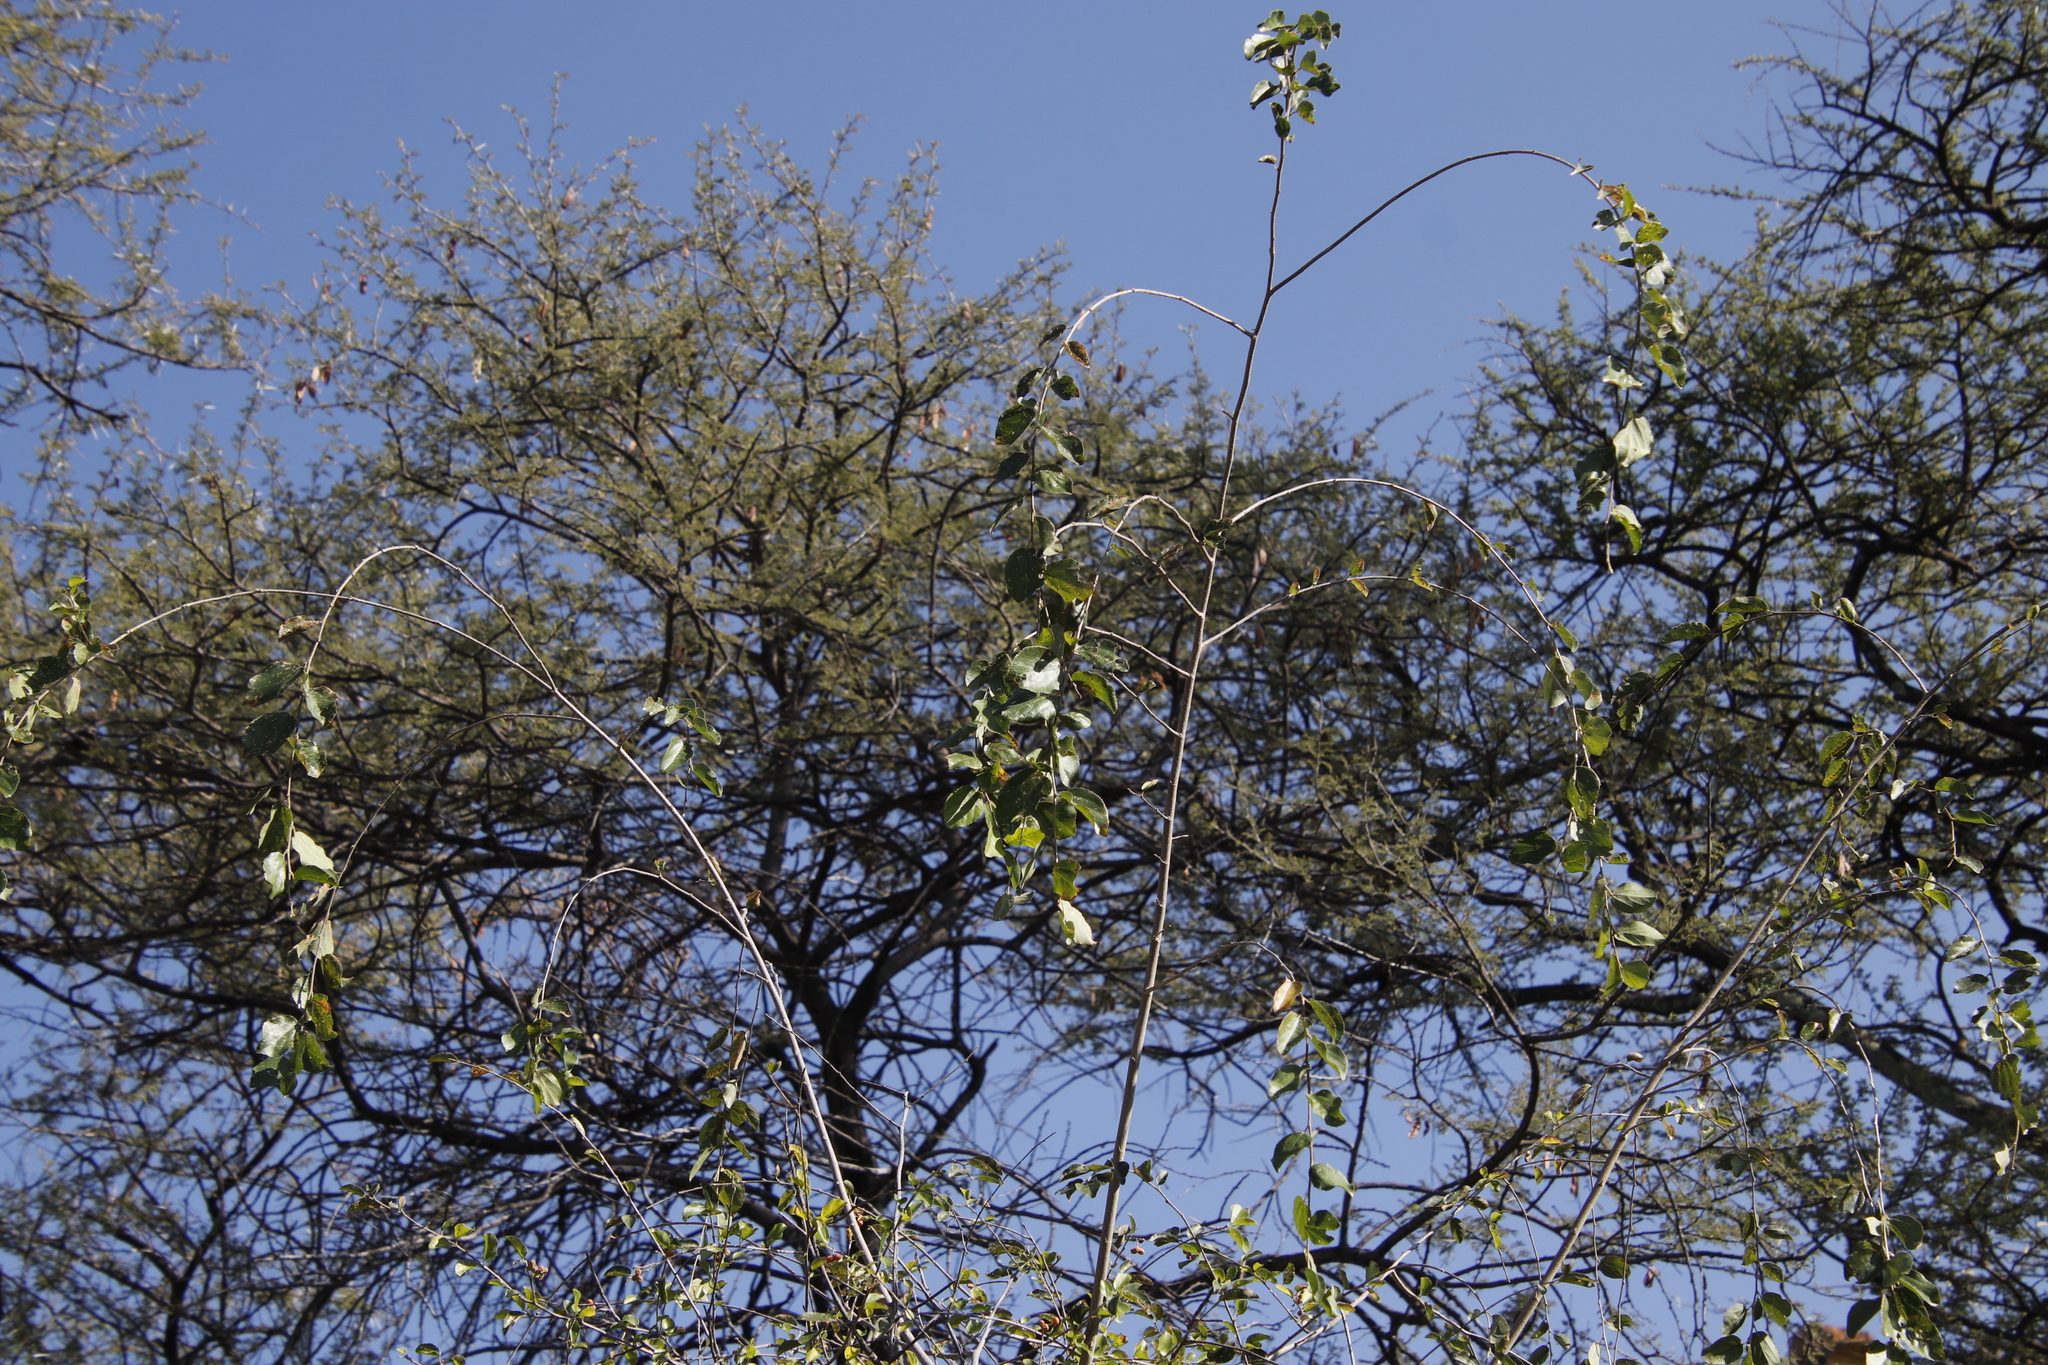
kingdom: Plantae
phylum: Tracheophyta
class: Magnoliopsida
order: Malvales
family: Malvaceae
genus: Grewia
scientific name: Grewia bicolor
